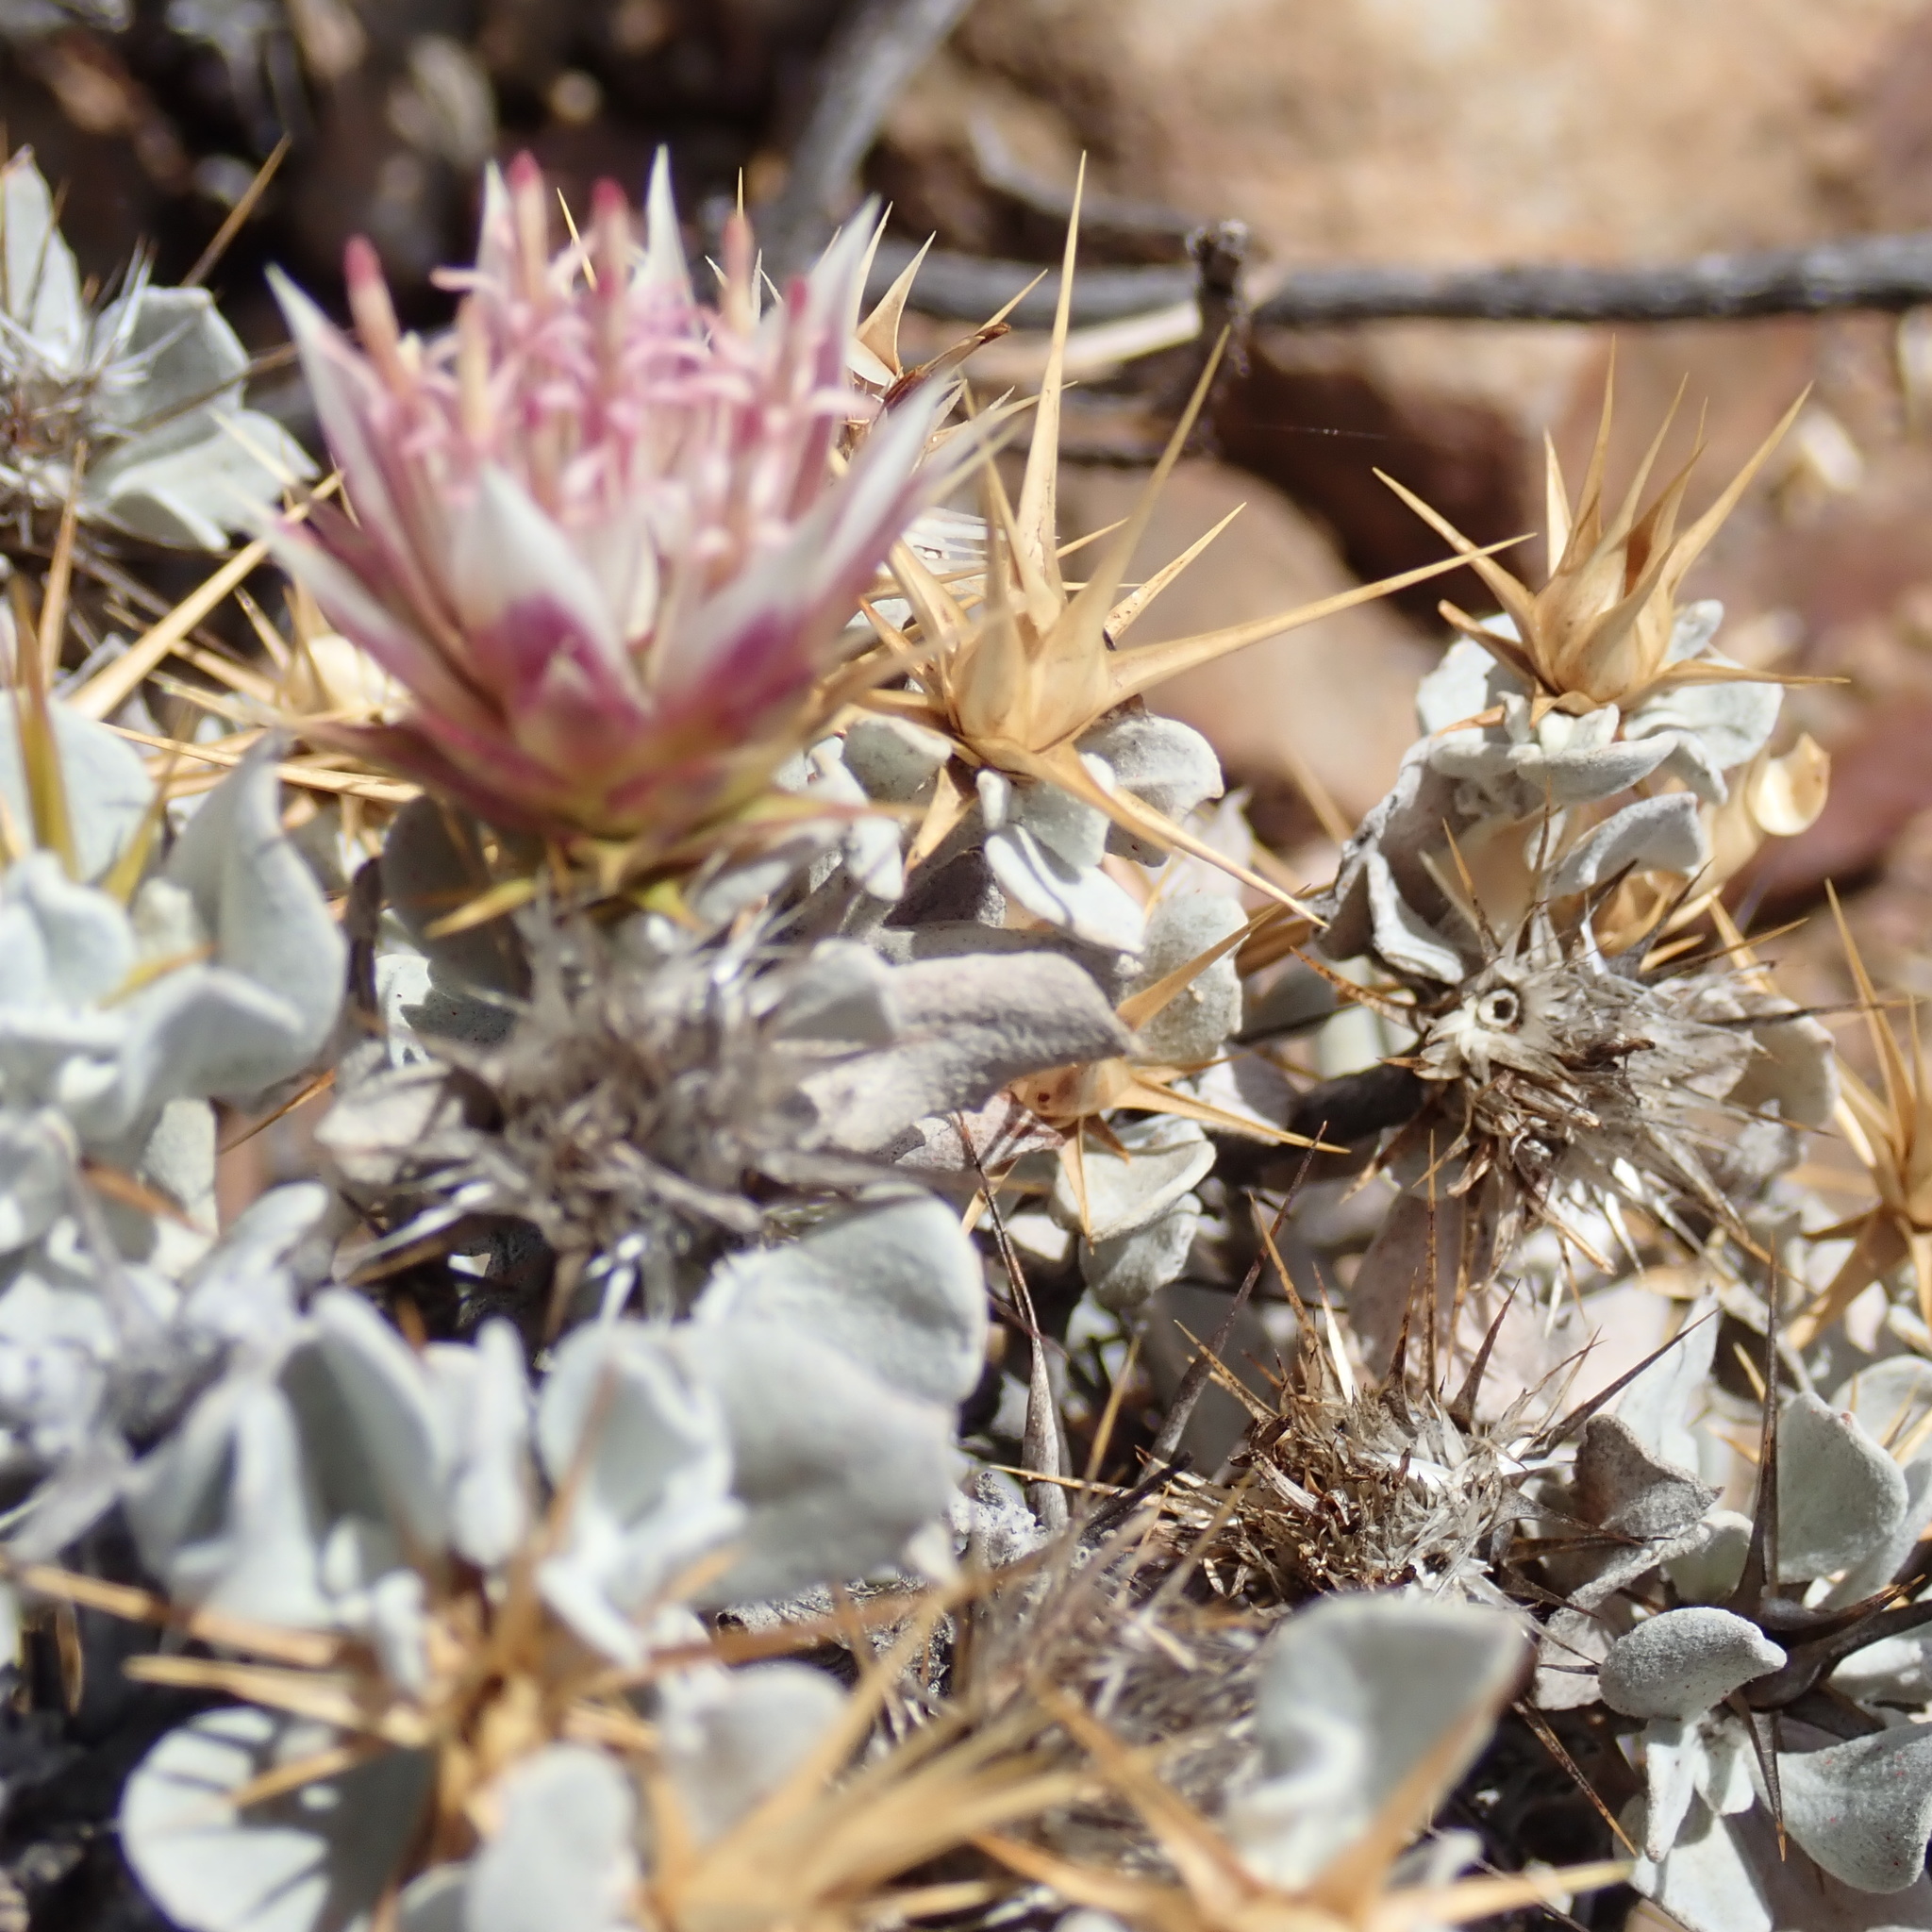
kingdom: Plantae
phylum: Tracheophyta
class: Magnoliopsida
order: Asterales
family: Asteraceae
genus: Macledium
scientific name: Macledium spinosum
